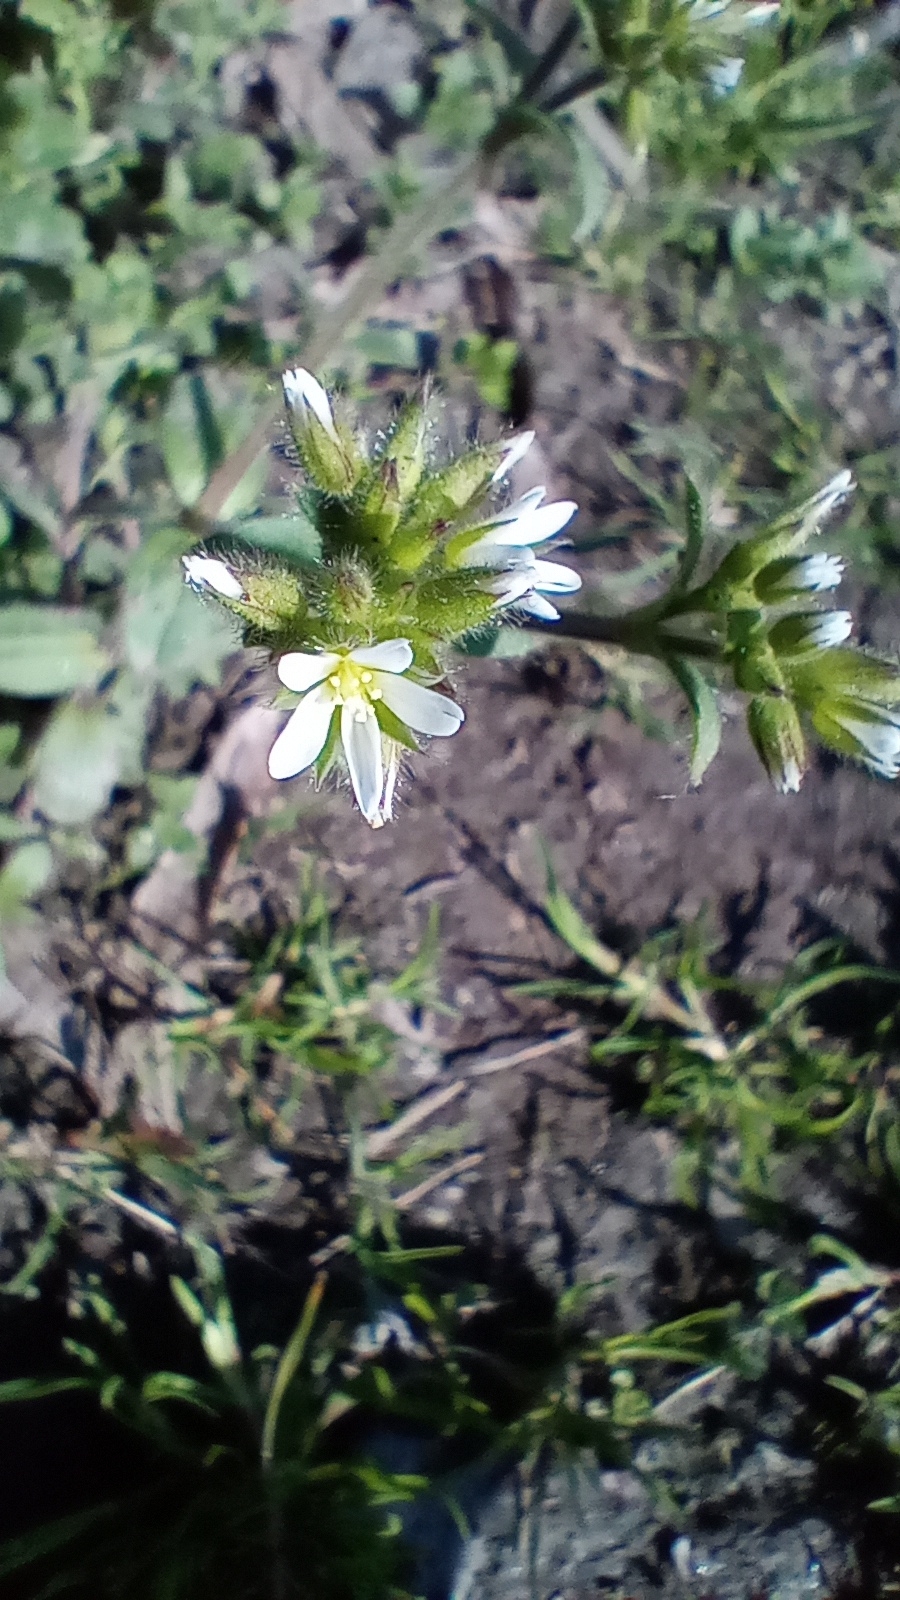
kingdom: Plantae
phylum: Tracheophyta
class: Magnoliopsida
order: Caryophyllales
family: Caryophyllaceae
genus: Cerastium
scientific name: Cerastium glomeratum
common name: Sticky chickweed
